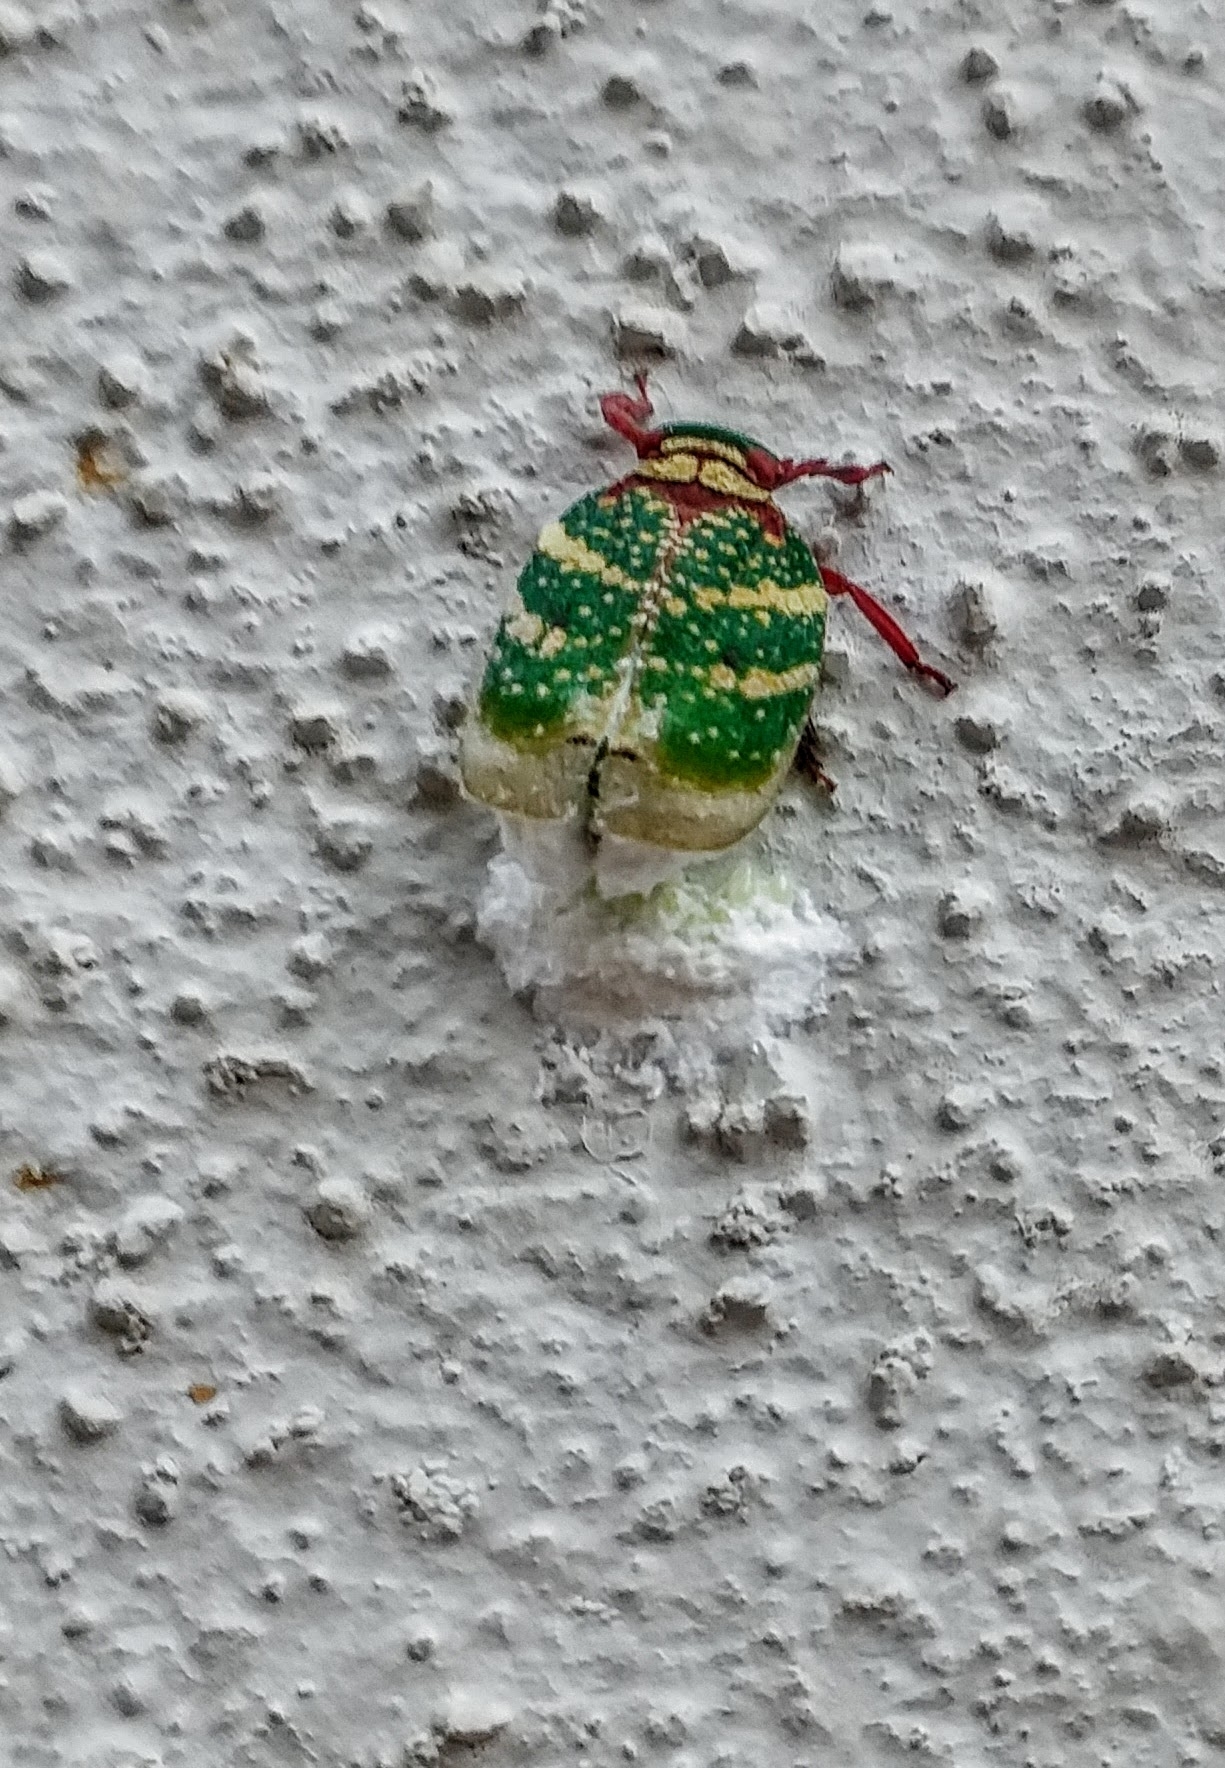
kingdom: Animalia
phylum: Arthropoda
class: Insecta
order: Hemiptera
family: Eurybrachidae
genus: Eurybrachys
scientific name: Eurybrachys tomentosa
